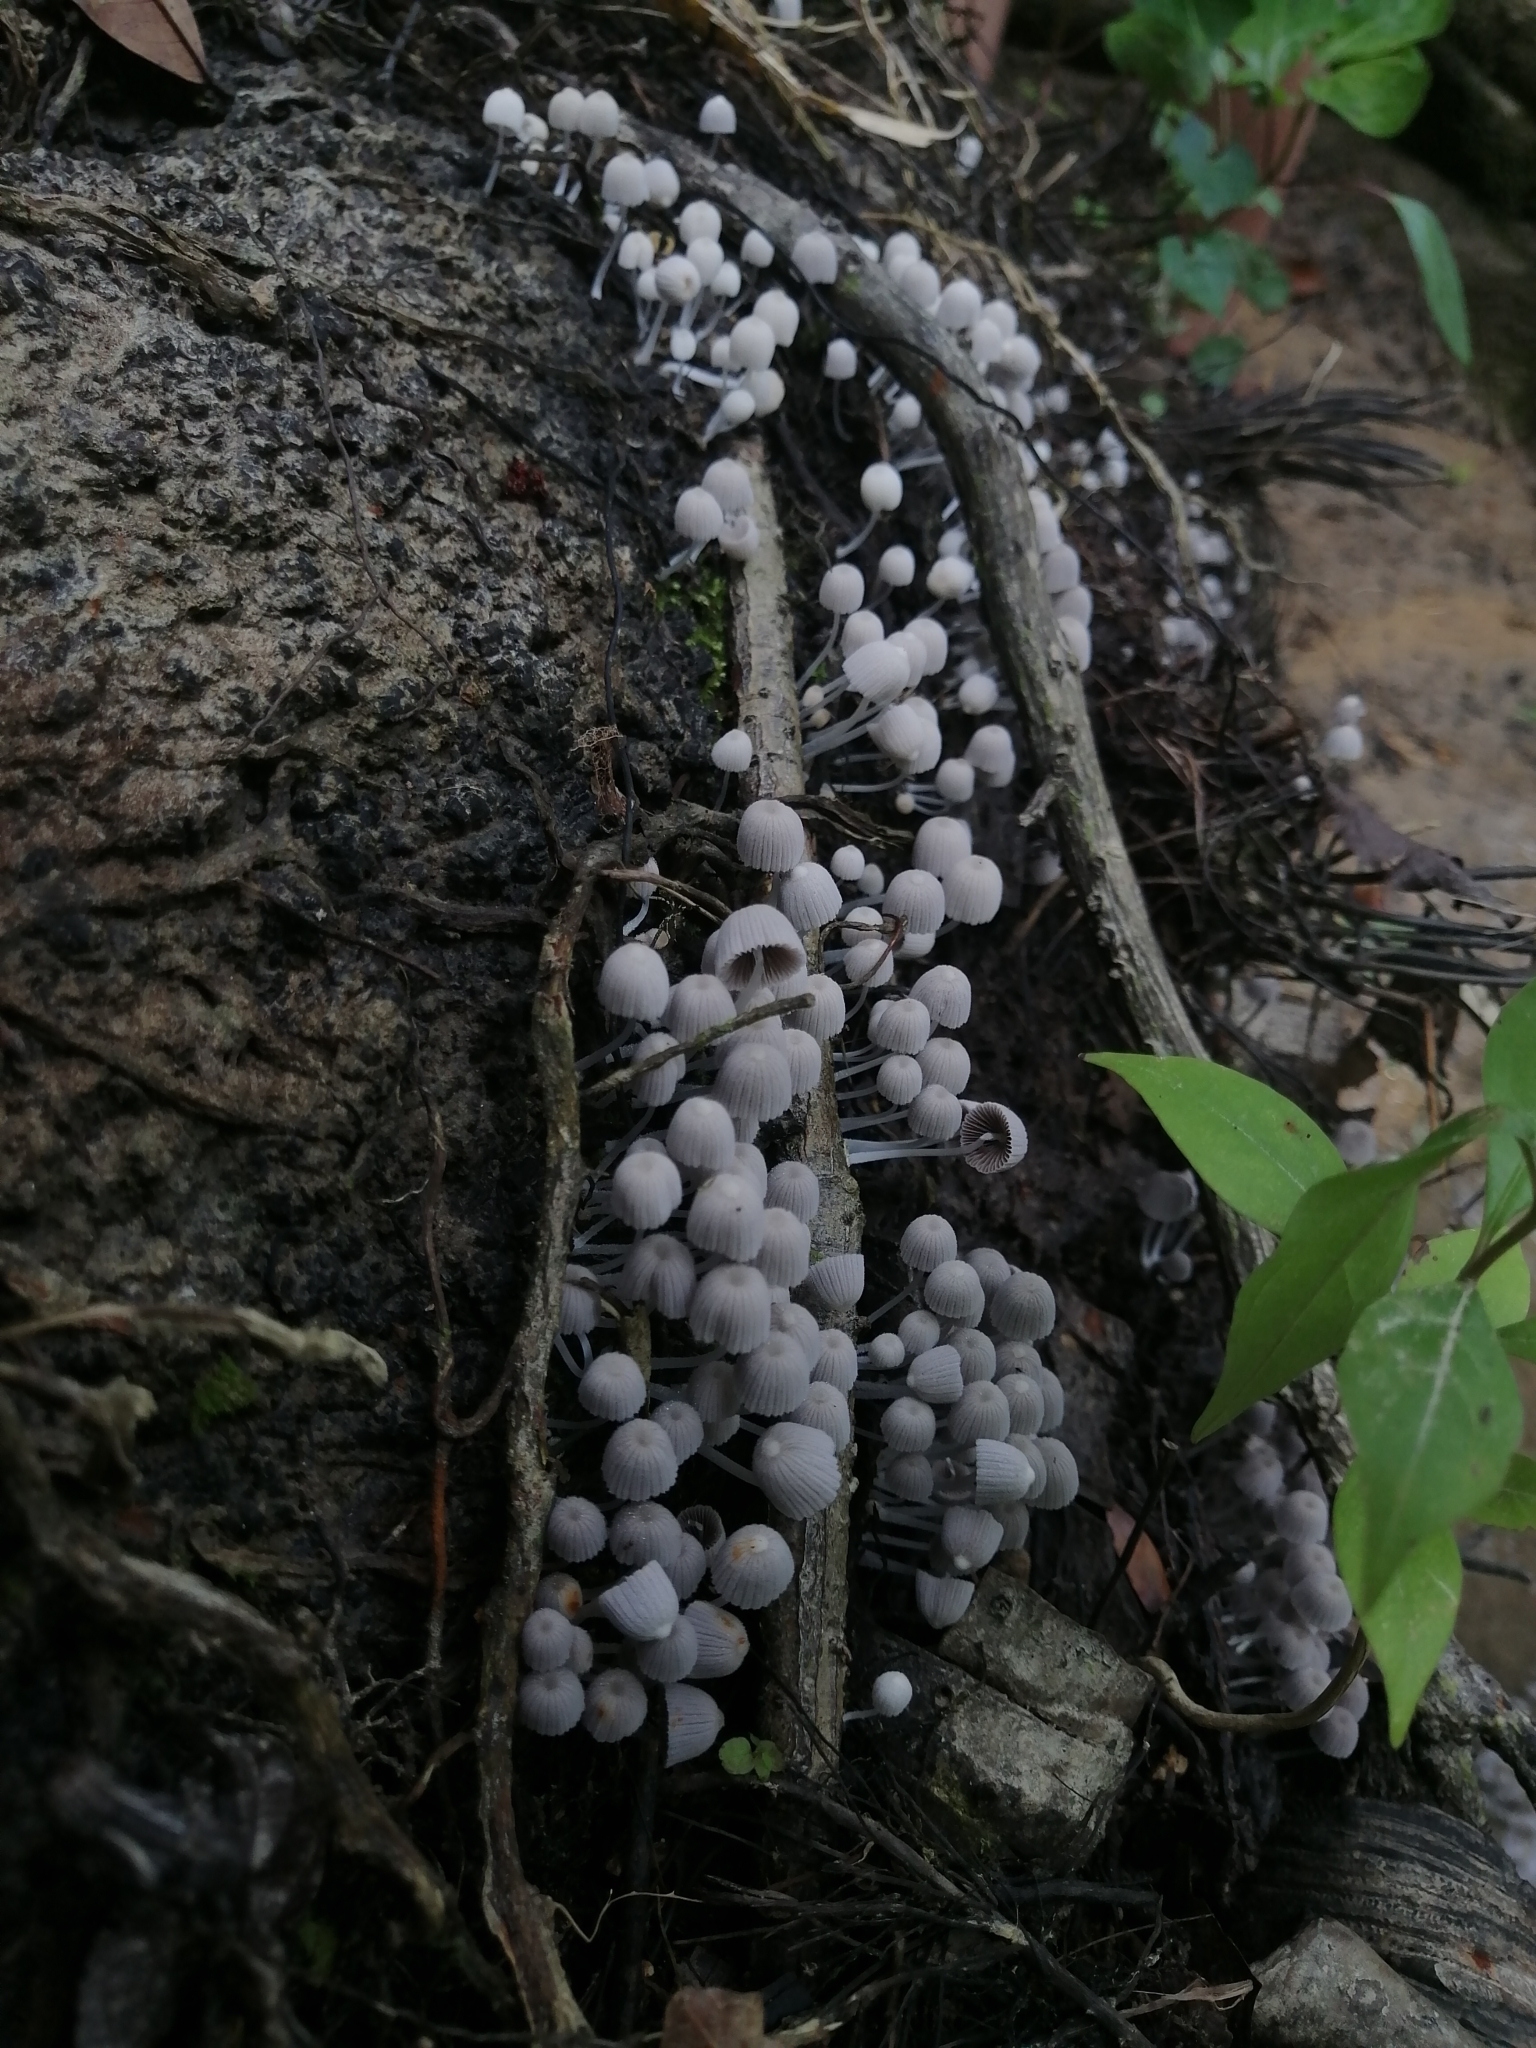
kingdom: Fungi
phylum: Basidiomycota
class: Agaricomycetes
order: Agaricales
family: Psathyrellaceae
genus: Coprinellus
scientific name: Coprinellus disseminatus
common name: Fairies' bonnets
